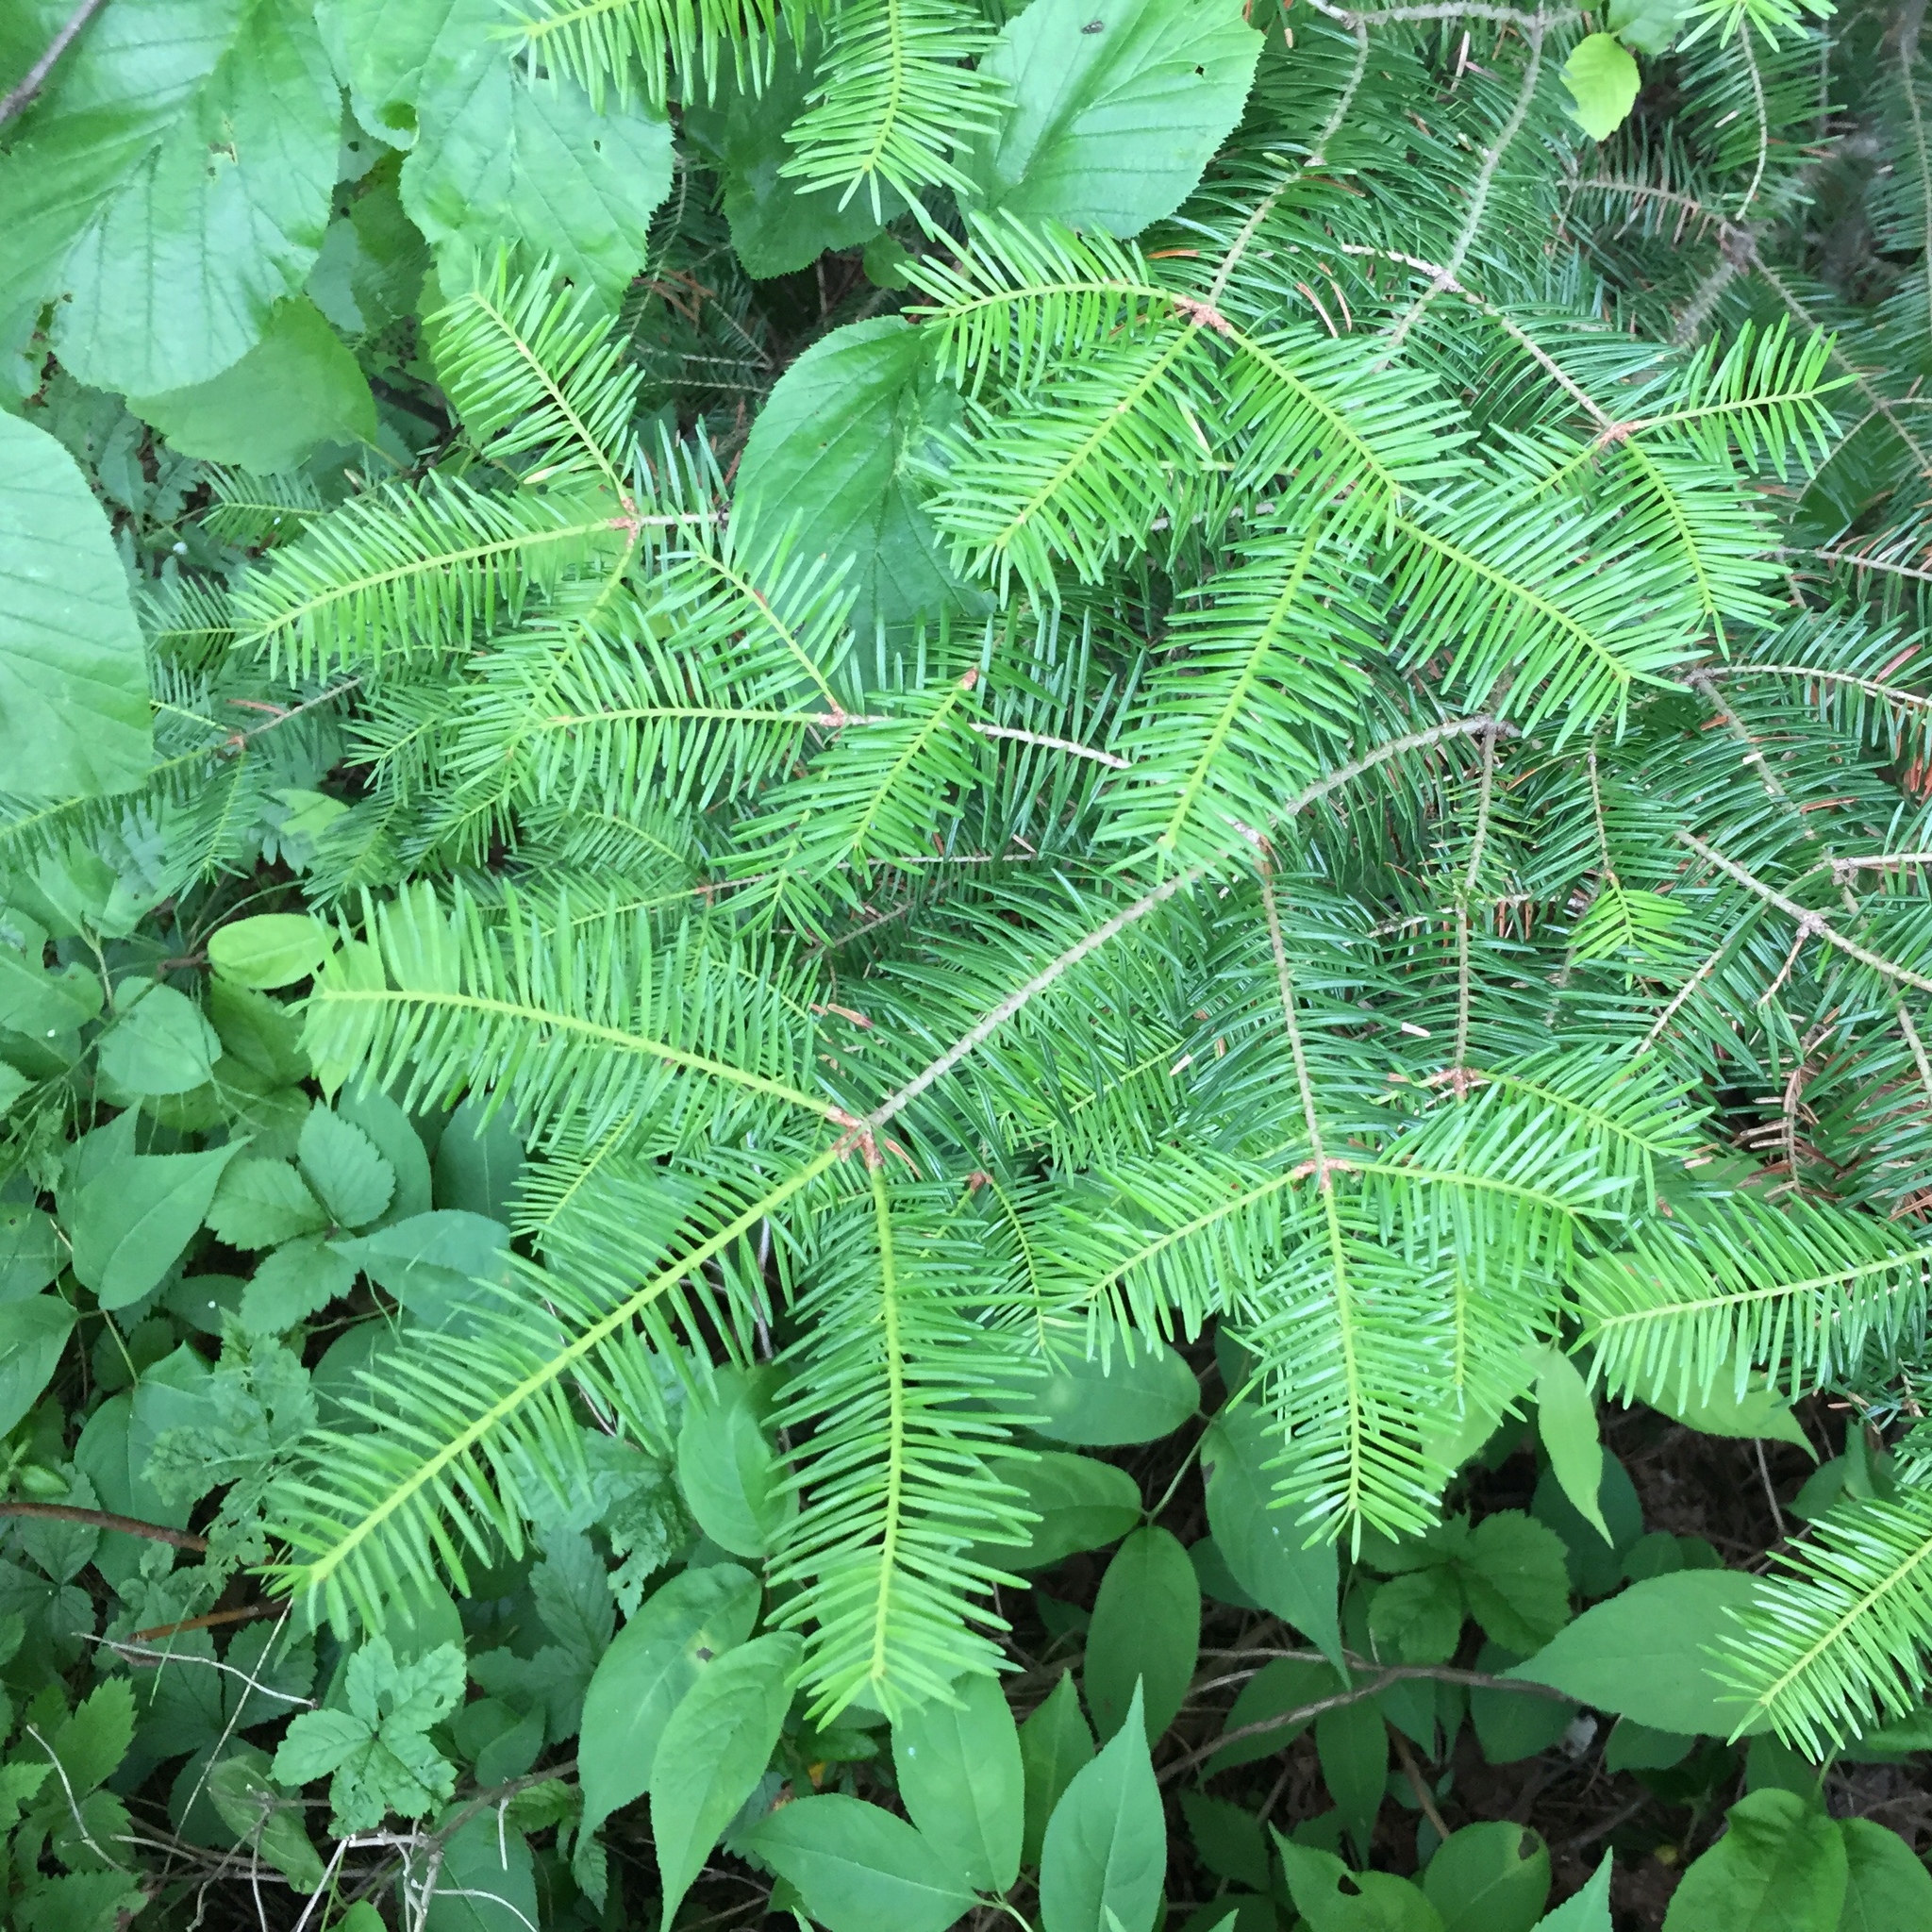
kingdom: Plantae
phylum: Tracheophyta
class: Pinopsida
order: Pinales
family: Pinaceae
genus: Abies
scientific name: Abies balsamea
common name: Balsam fir
